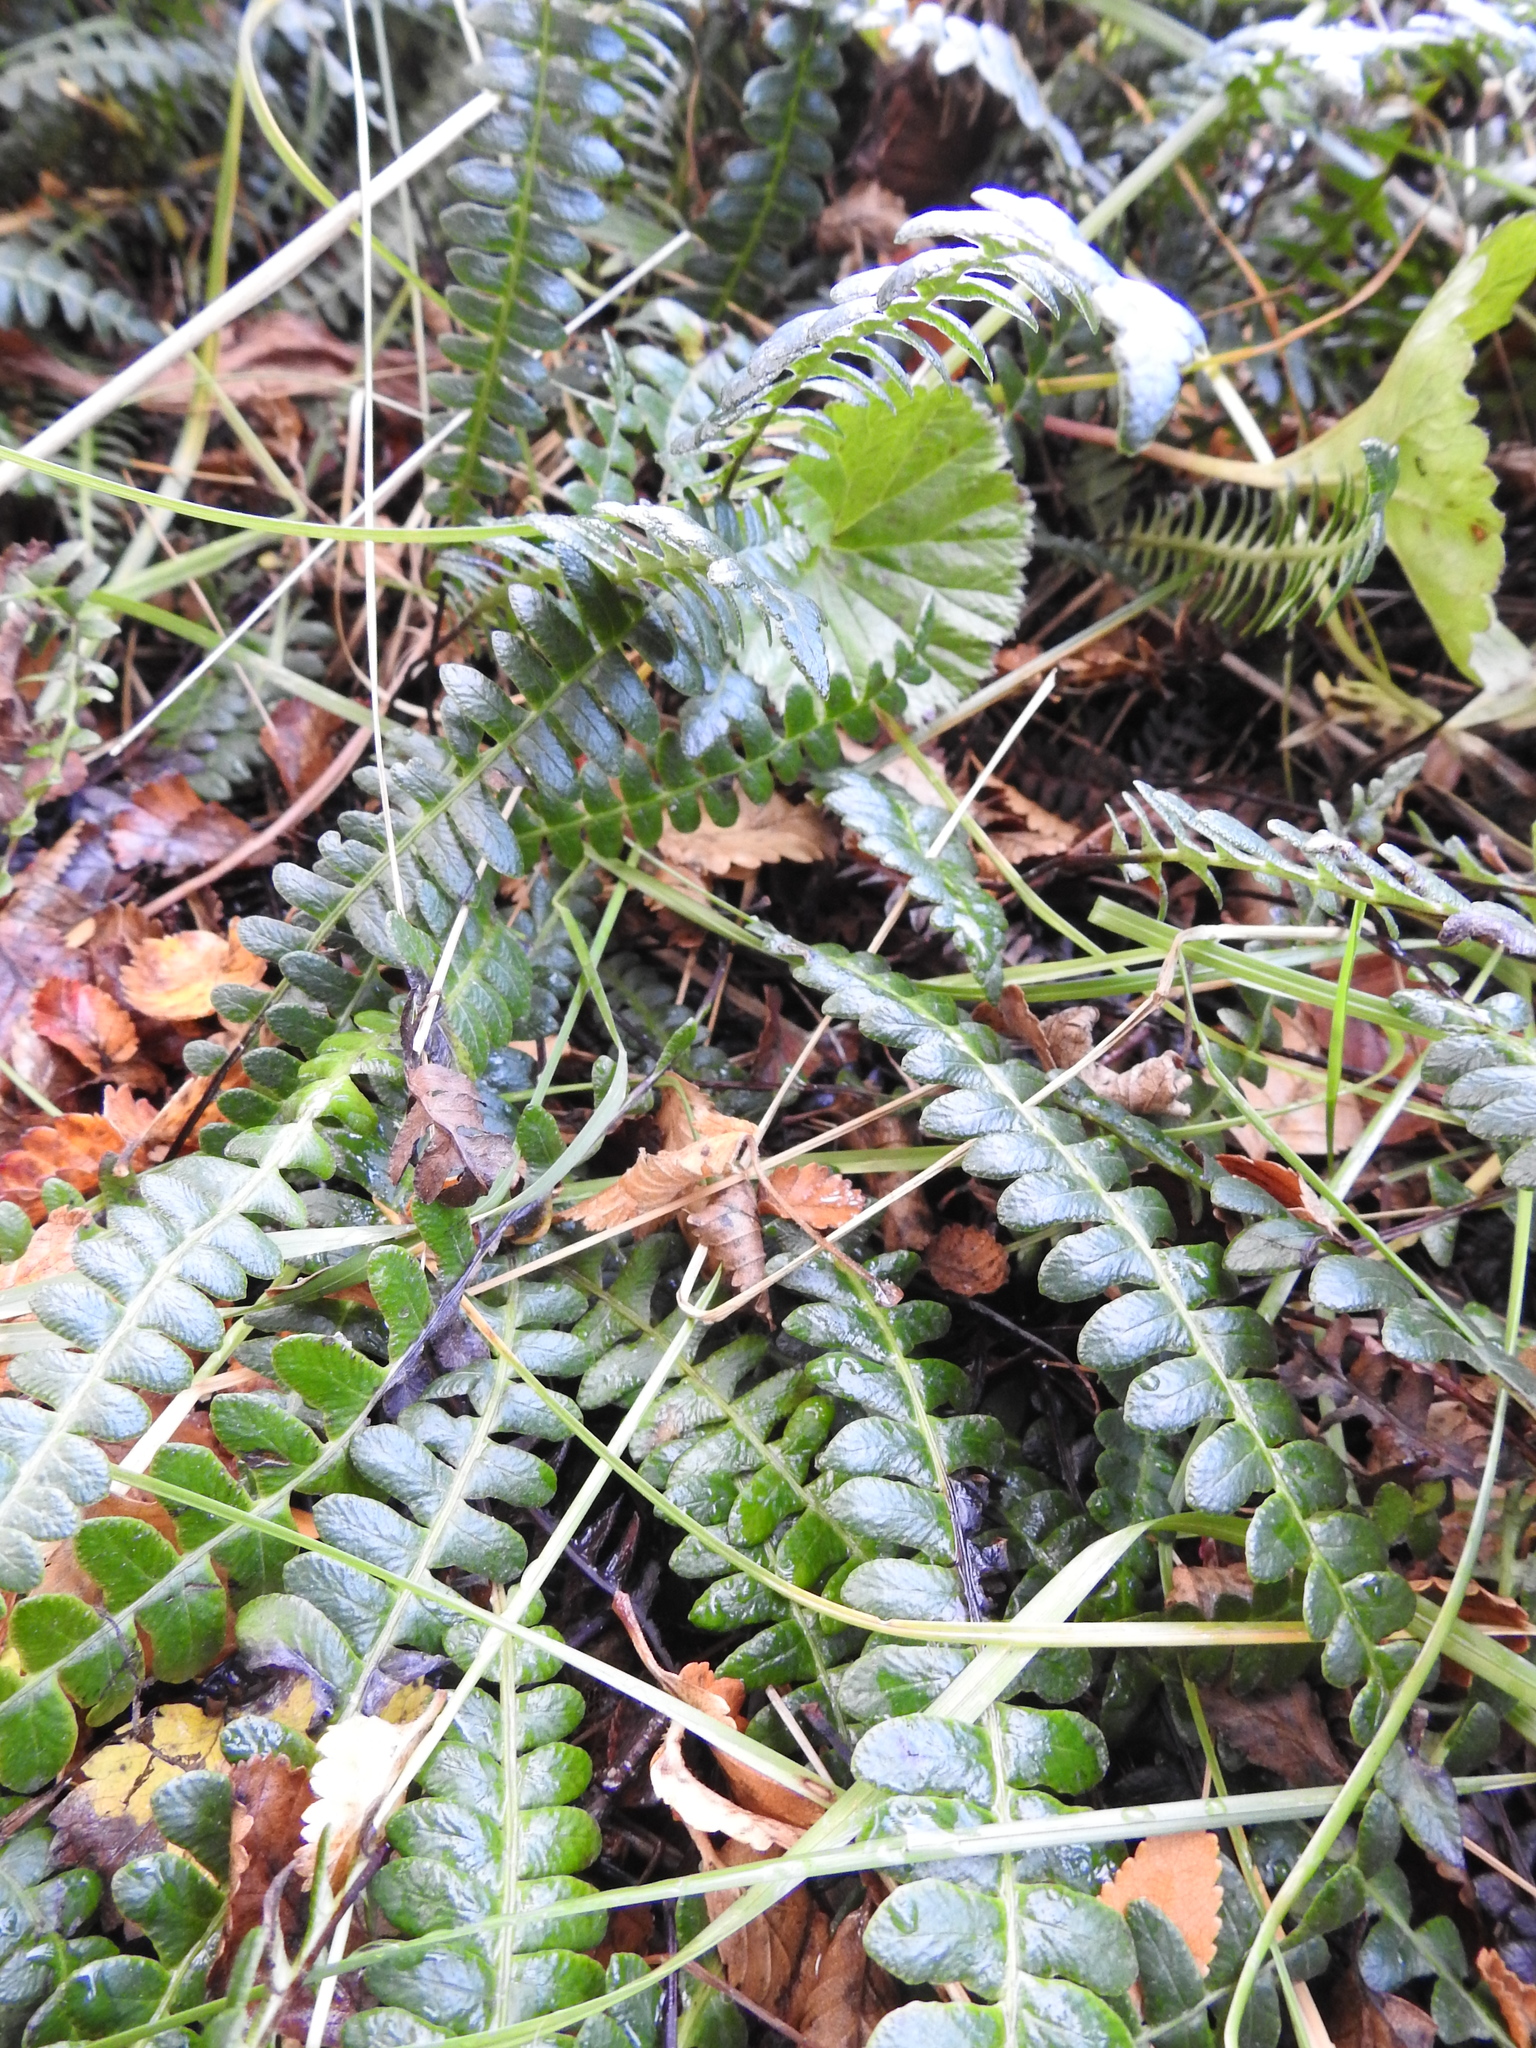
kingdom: Plantae
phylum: Tracheophyta
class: Polypodiopsida
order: Polypodiales
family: Blechnaceae
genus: Austroblechnum
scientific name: Austroblechnum penna-marina
